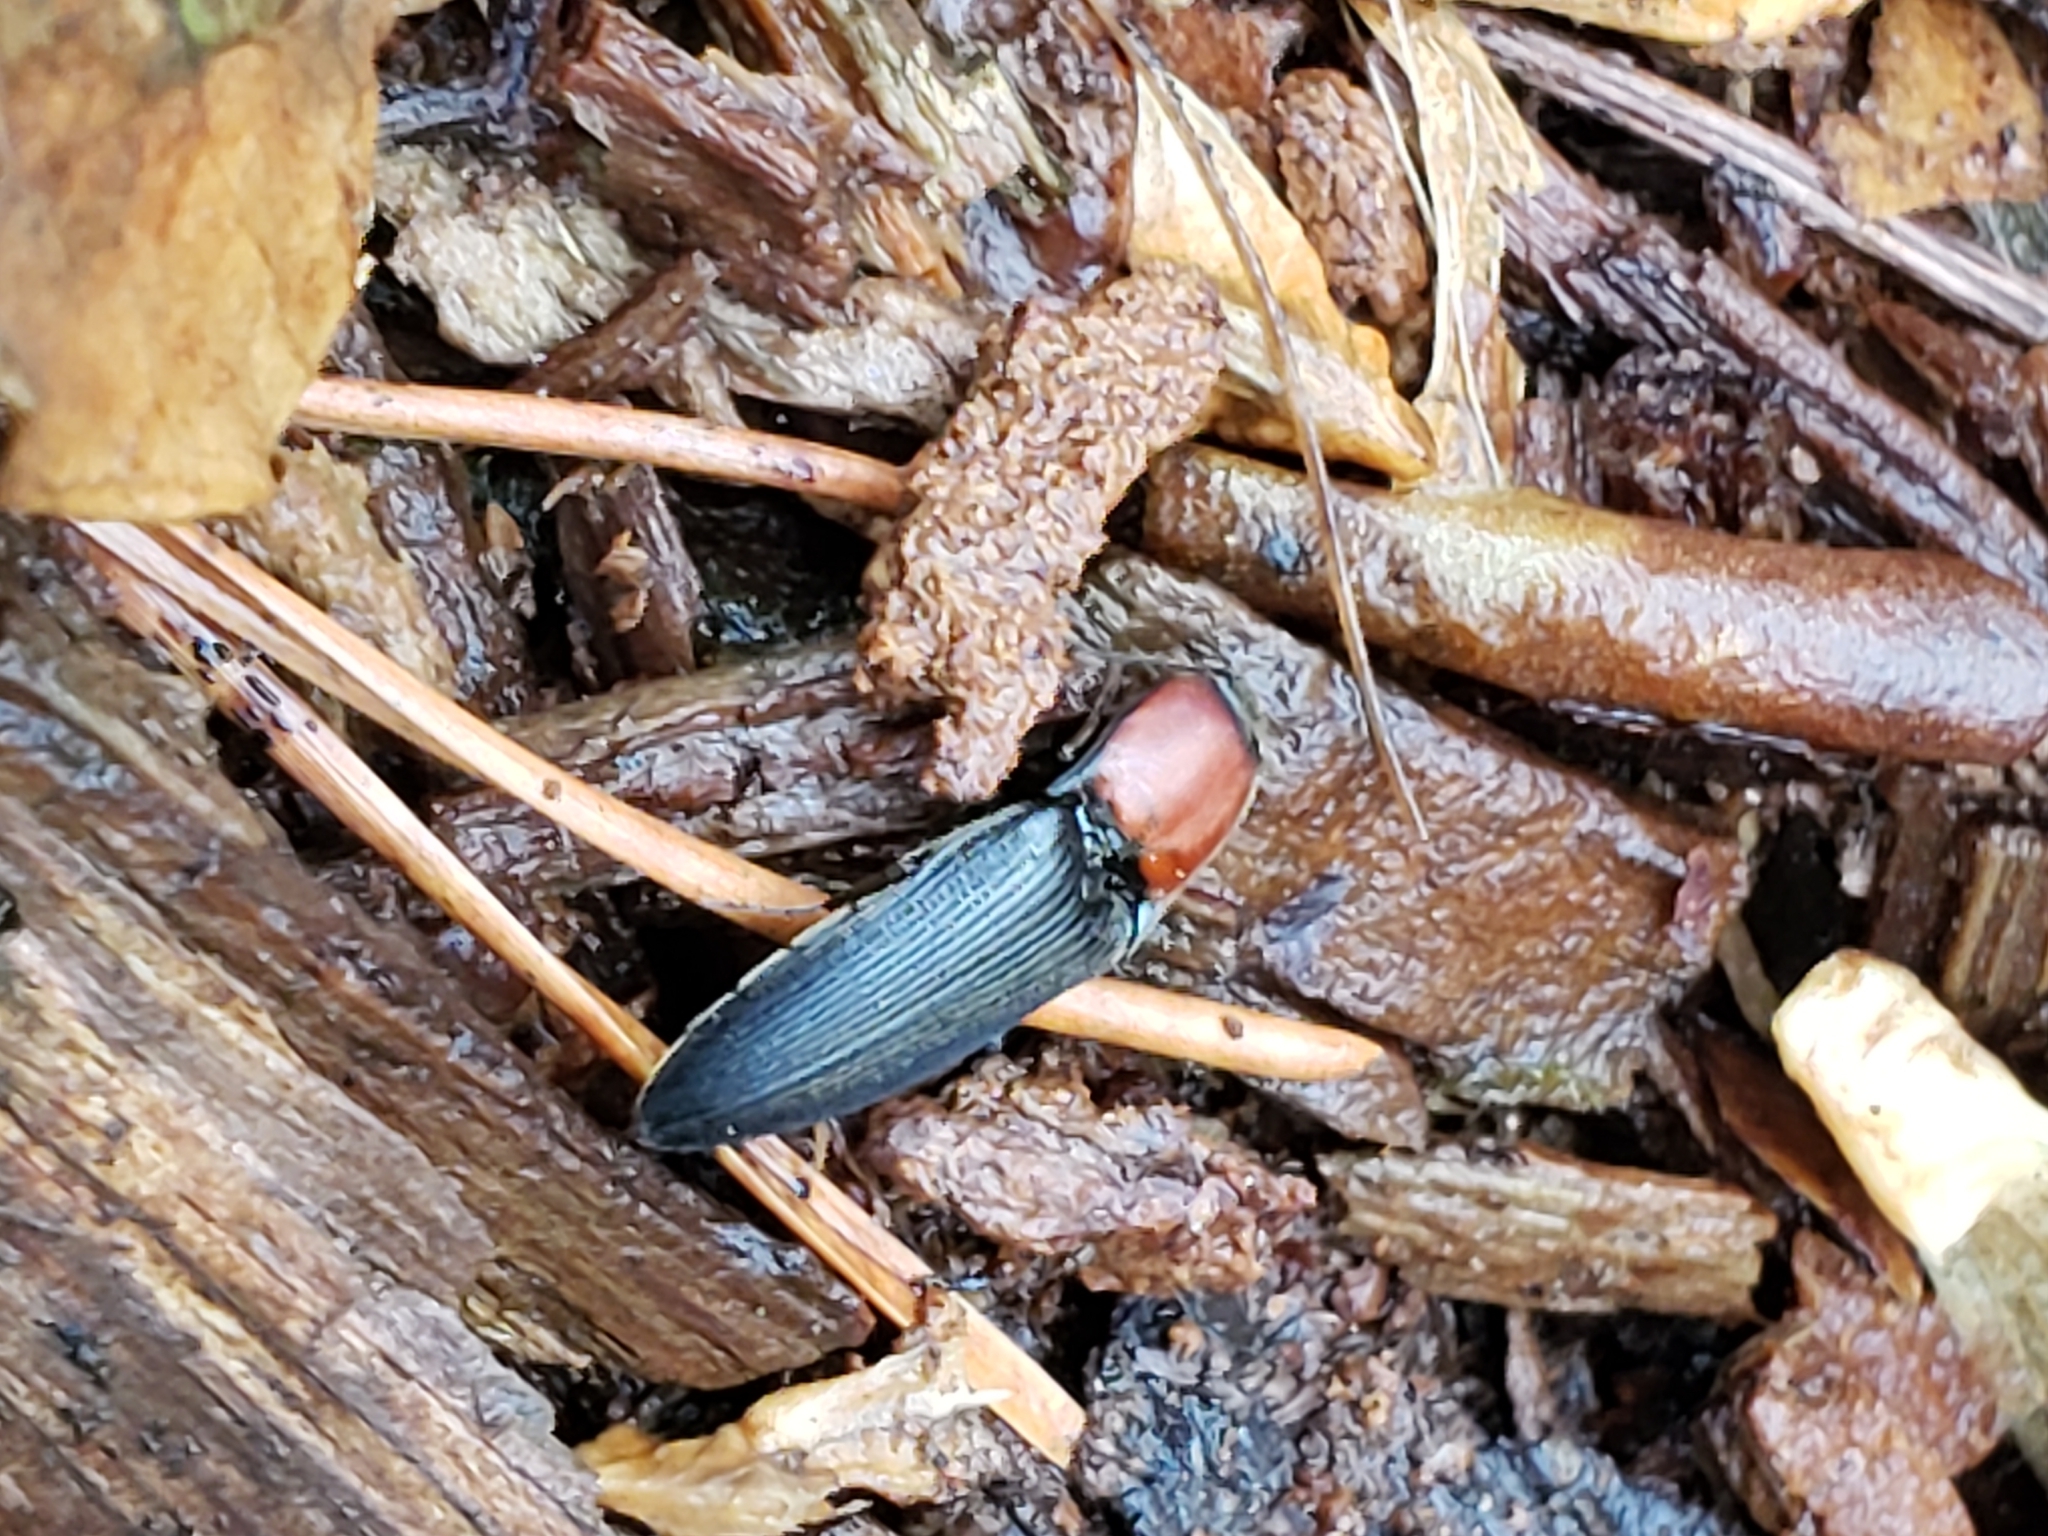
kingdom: Animalia
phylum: Arthropoda
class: Insecta
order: Coleoptera
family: Elateridae
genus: Ampedus
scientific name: Ampedus rubricollis
